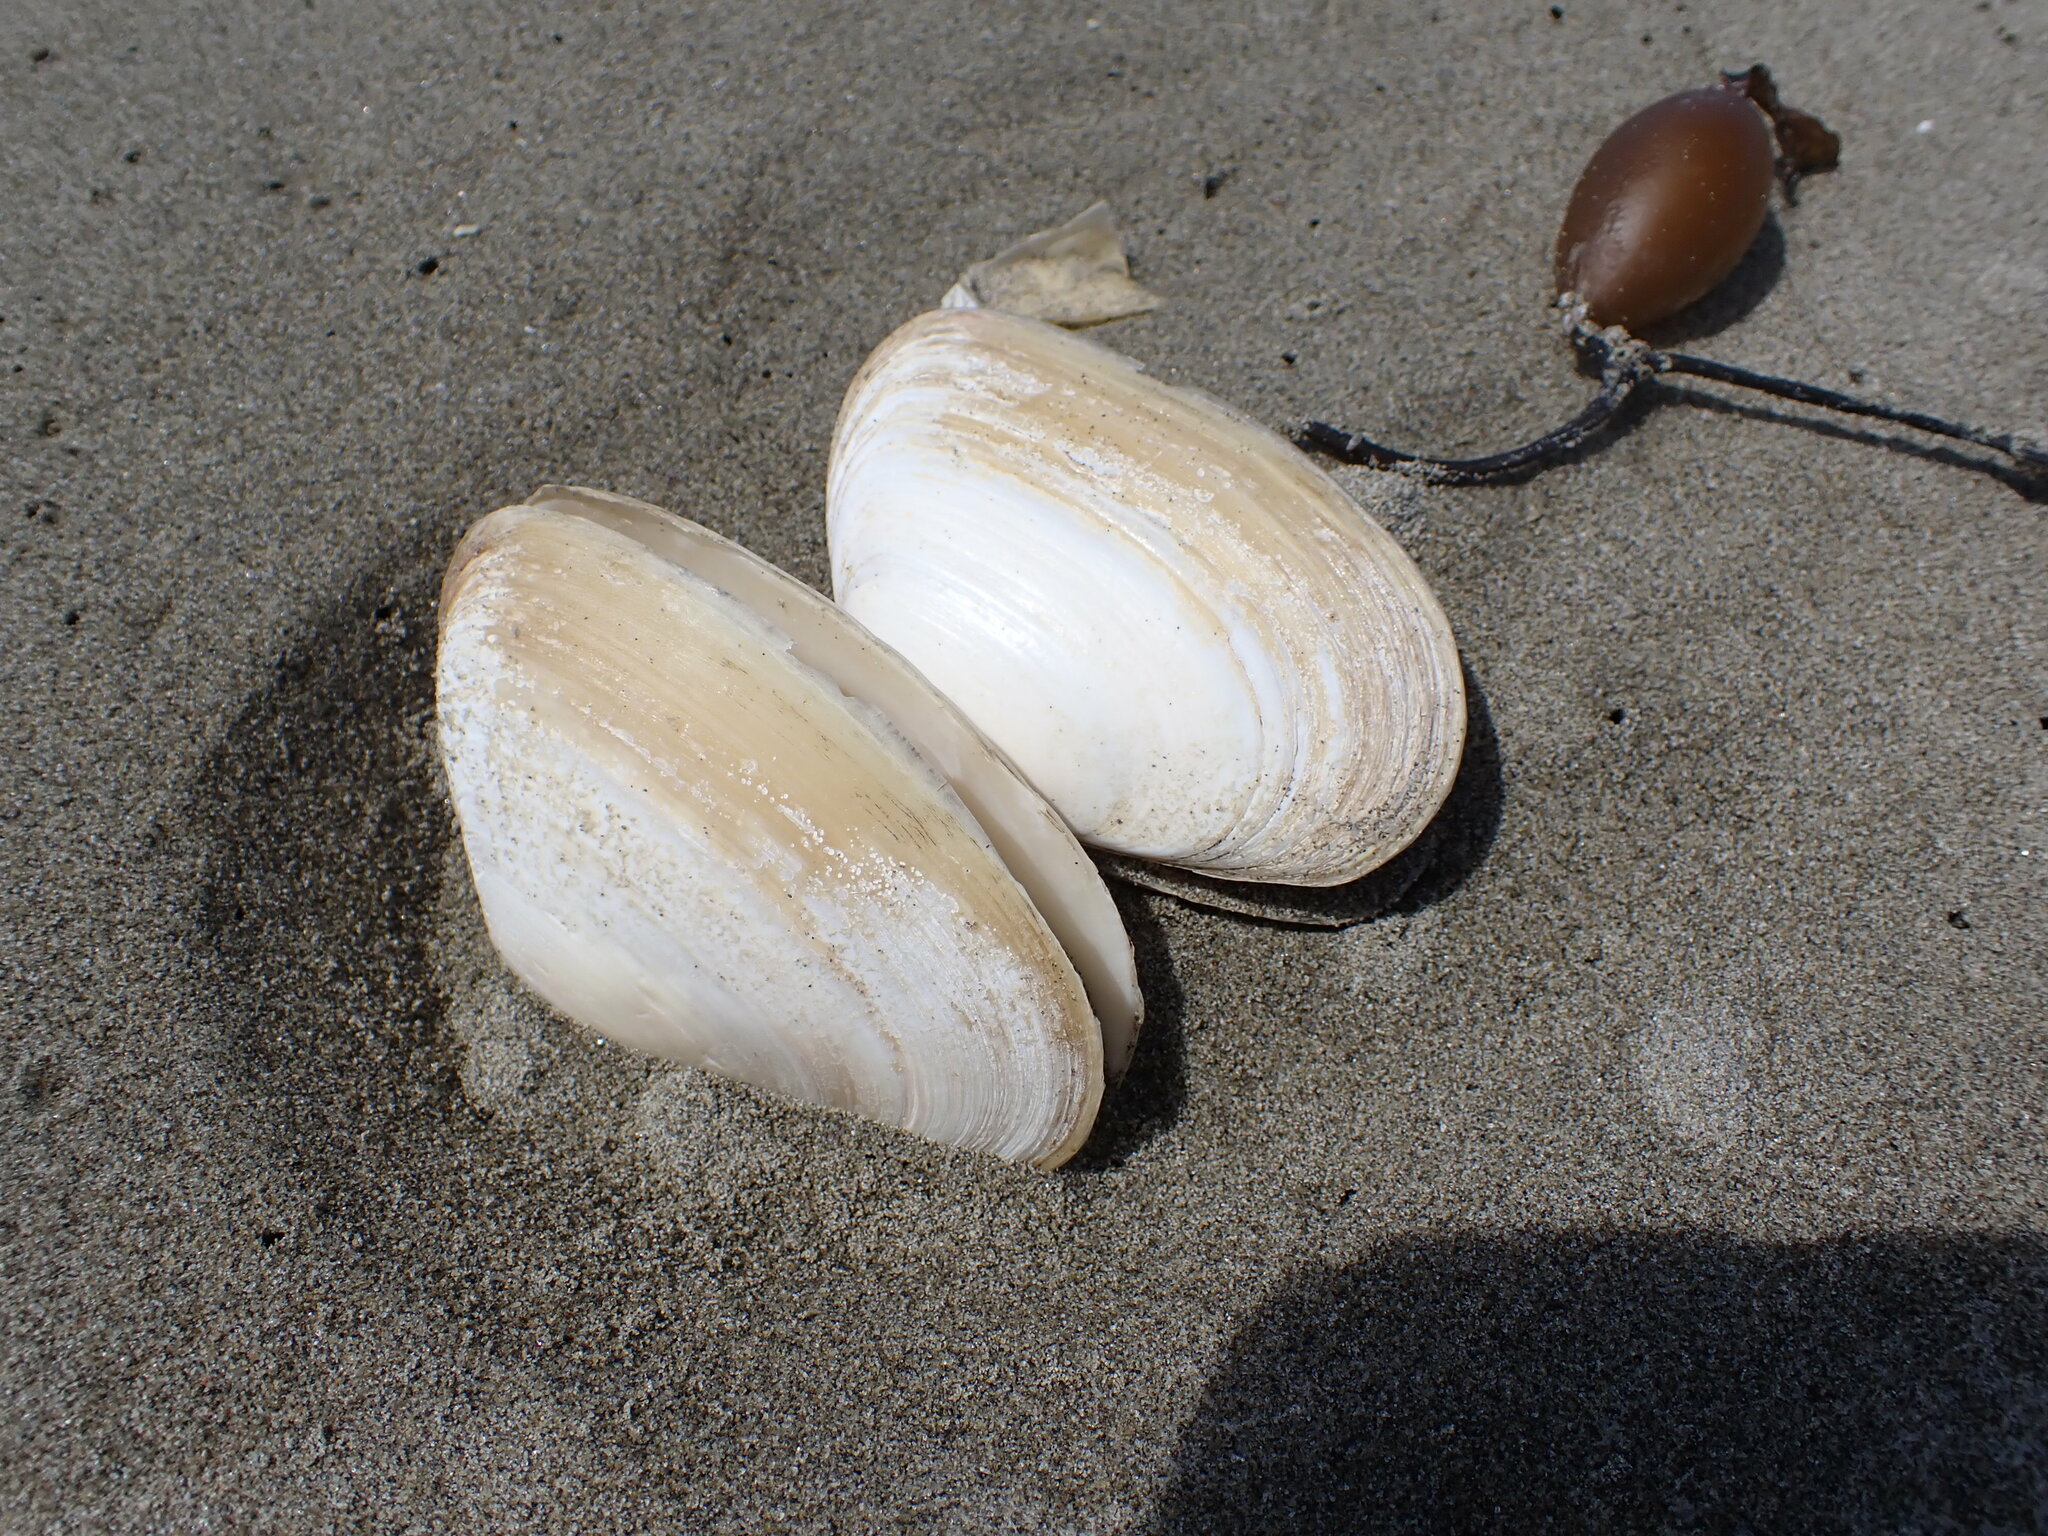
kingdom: Animalia
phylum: Mollusca
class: Bivalvia
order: Venerida
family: Mesodesmatidae
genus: Paphies
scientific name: Paphies donacina
